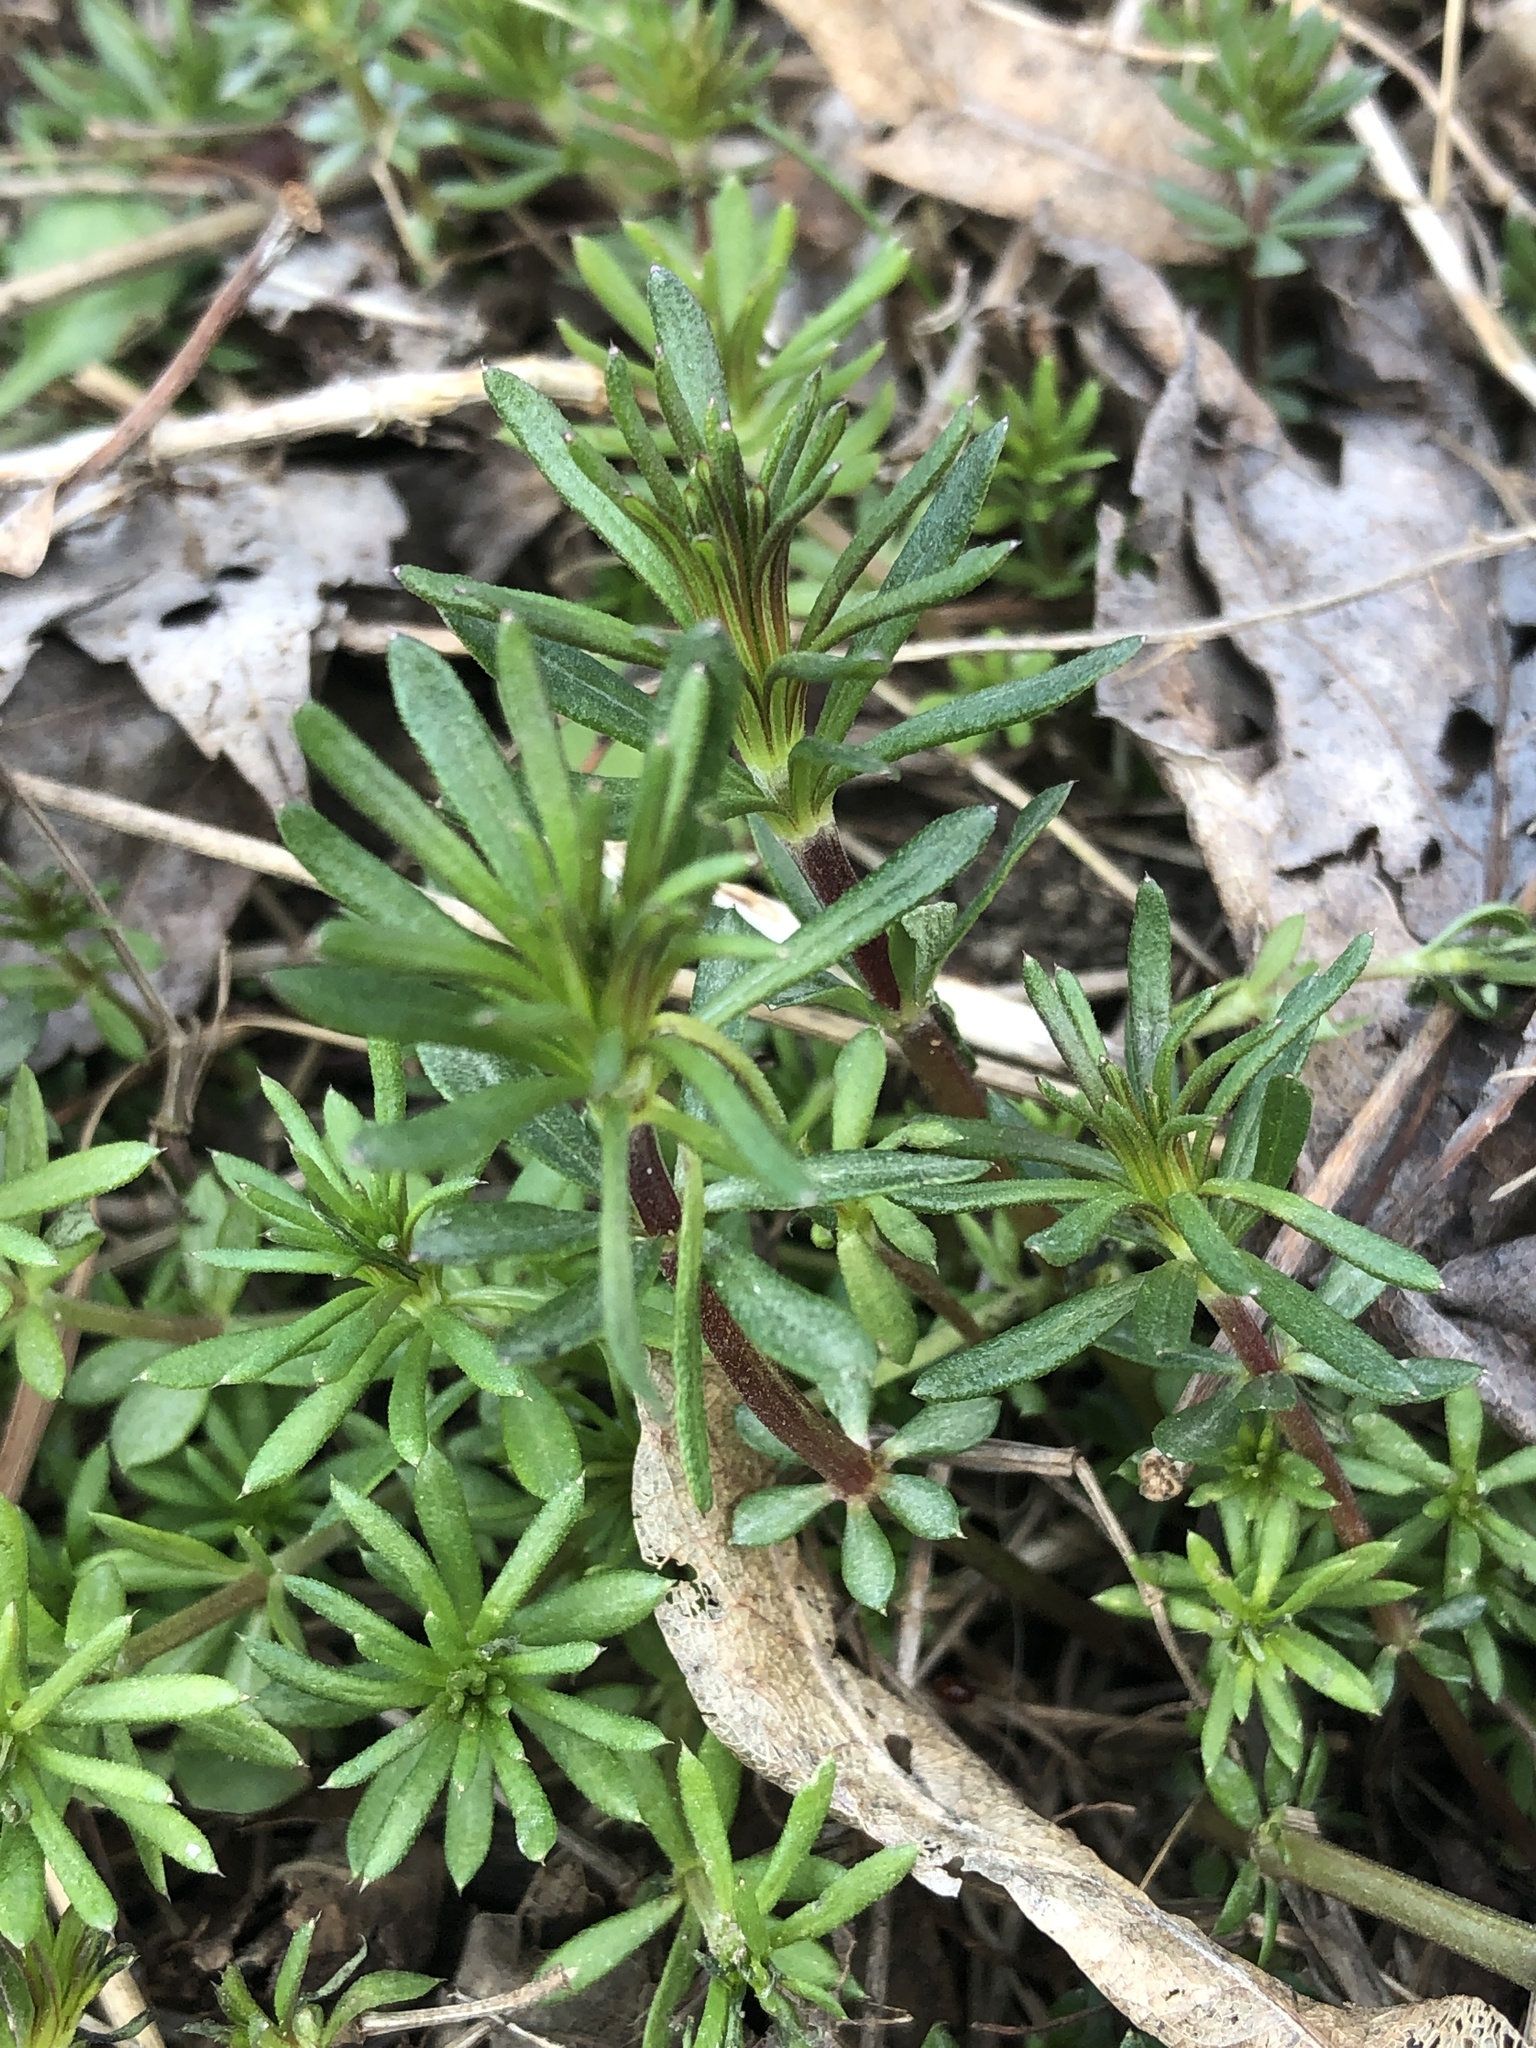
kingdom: Plantae
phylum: Tracheophyta
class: Magnoliopsida
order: Gentianales
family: Rubiaceae
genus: Galium
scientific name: Galium mollugo
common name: Hedge bedstraw
